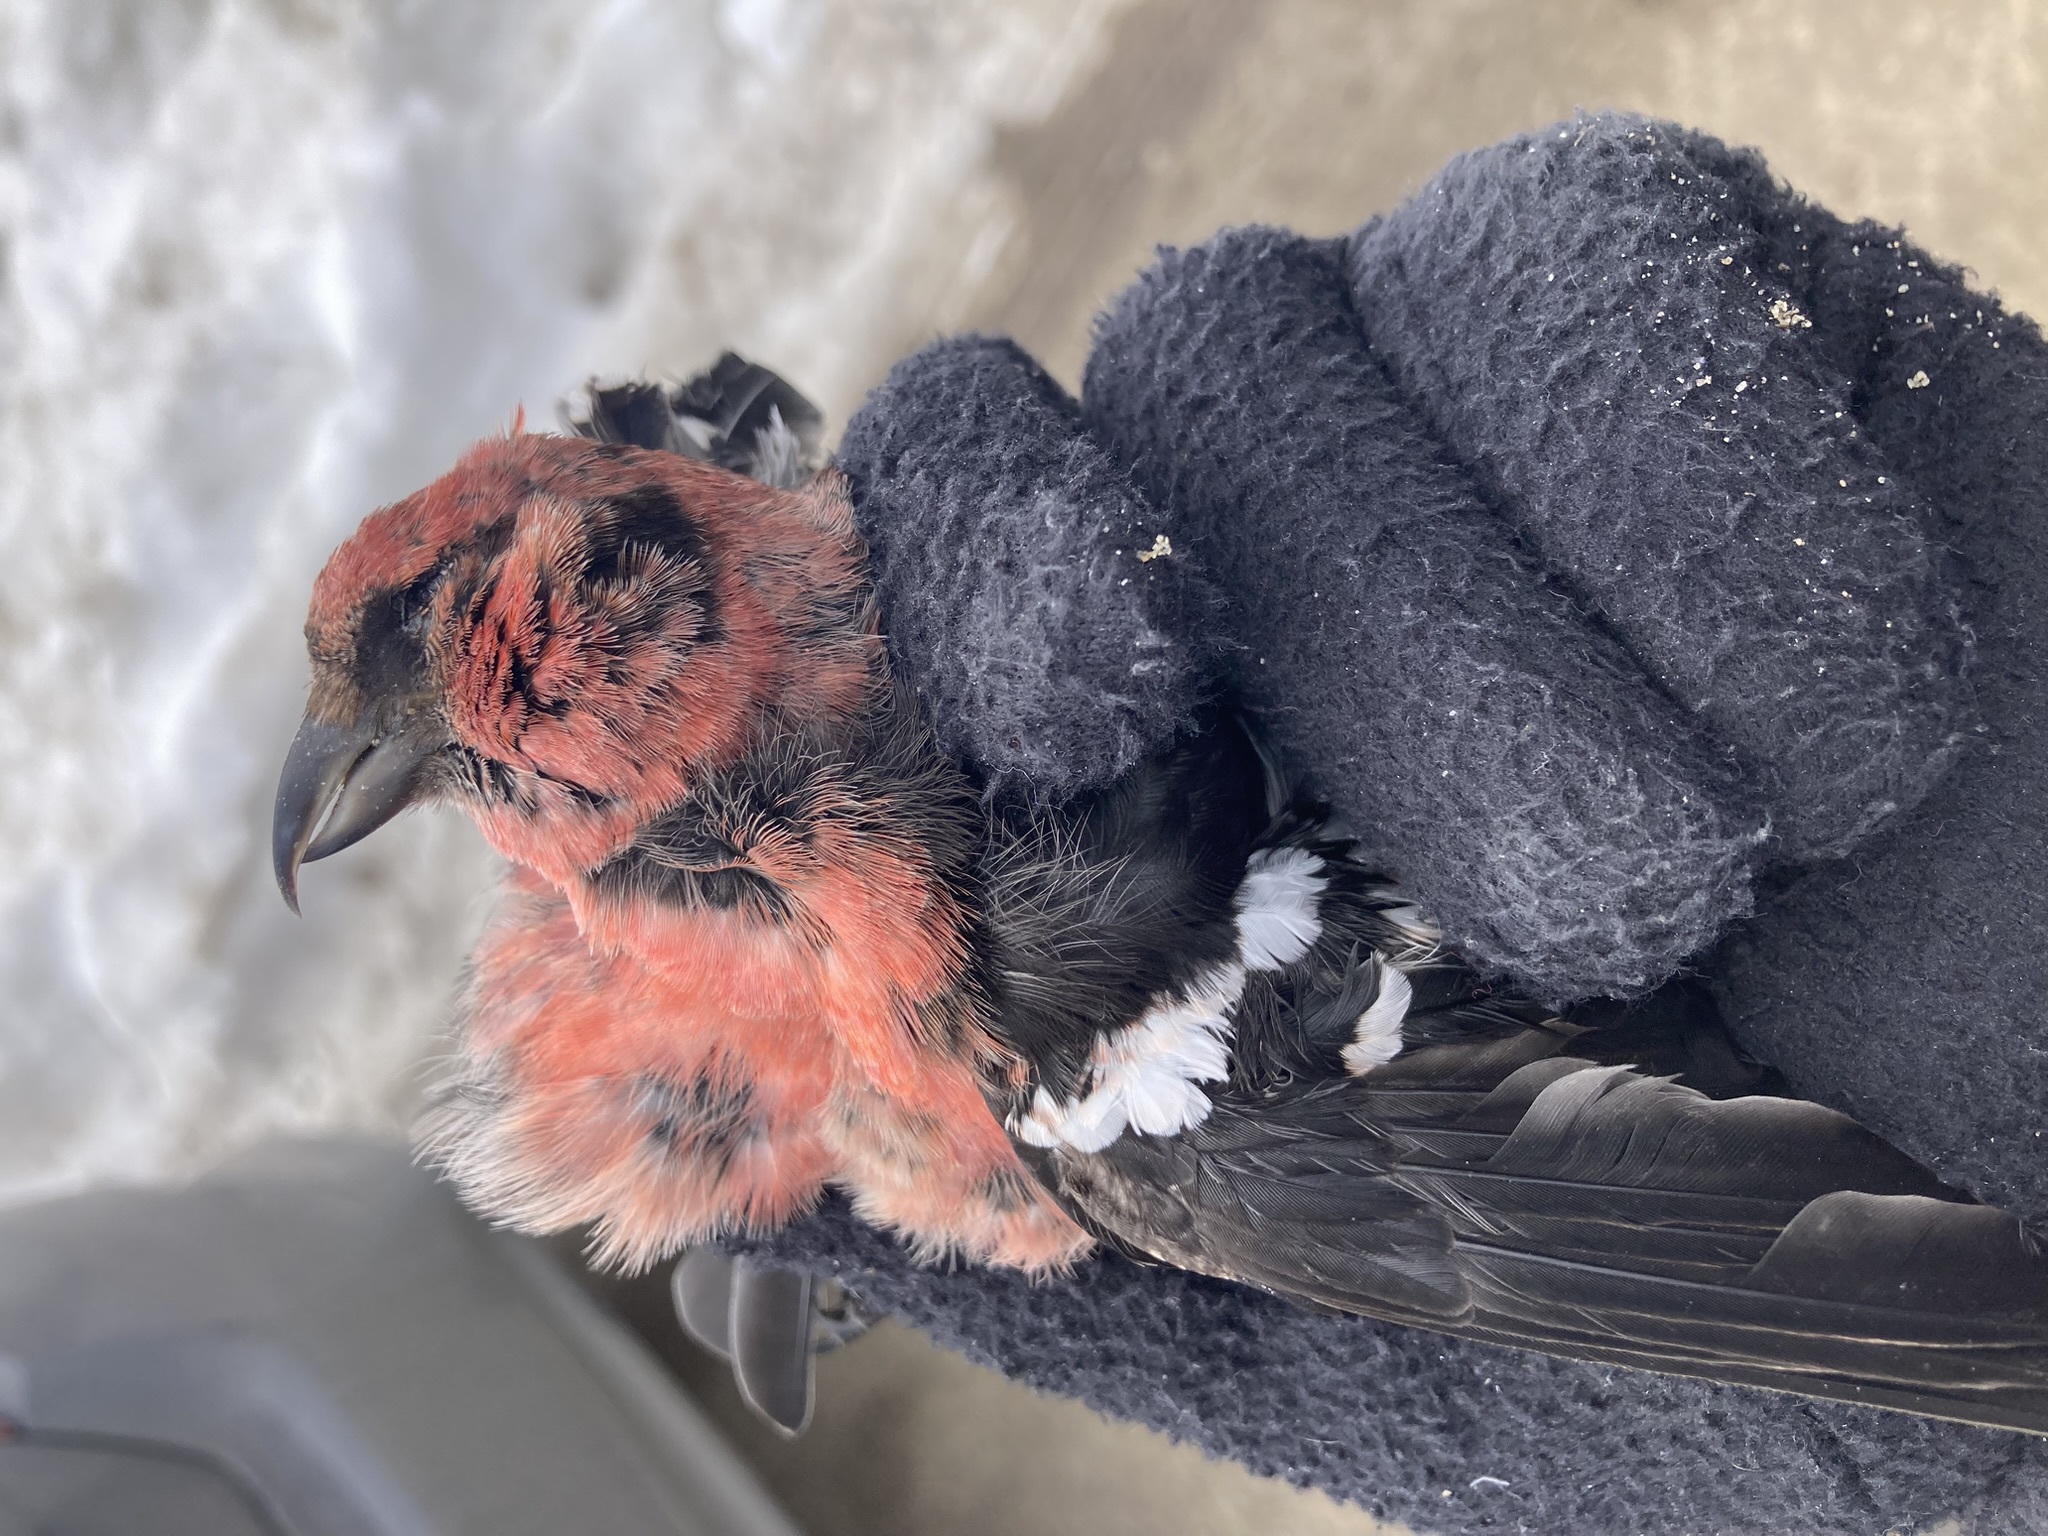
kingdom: Animalia
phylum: Chordata
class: Aves
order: Passeriformes
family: Fringillidae
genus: Loxia
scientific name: Loxia leucoptera
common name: Two-barred crossbill
